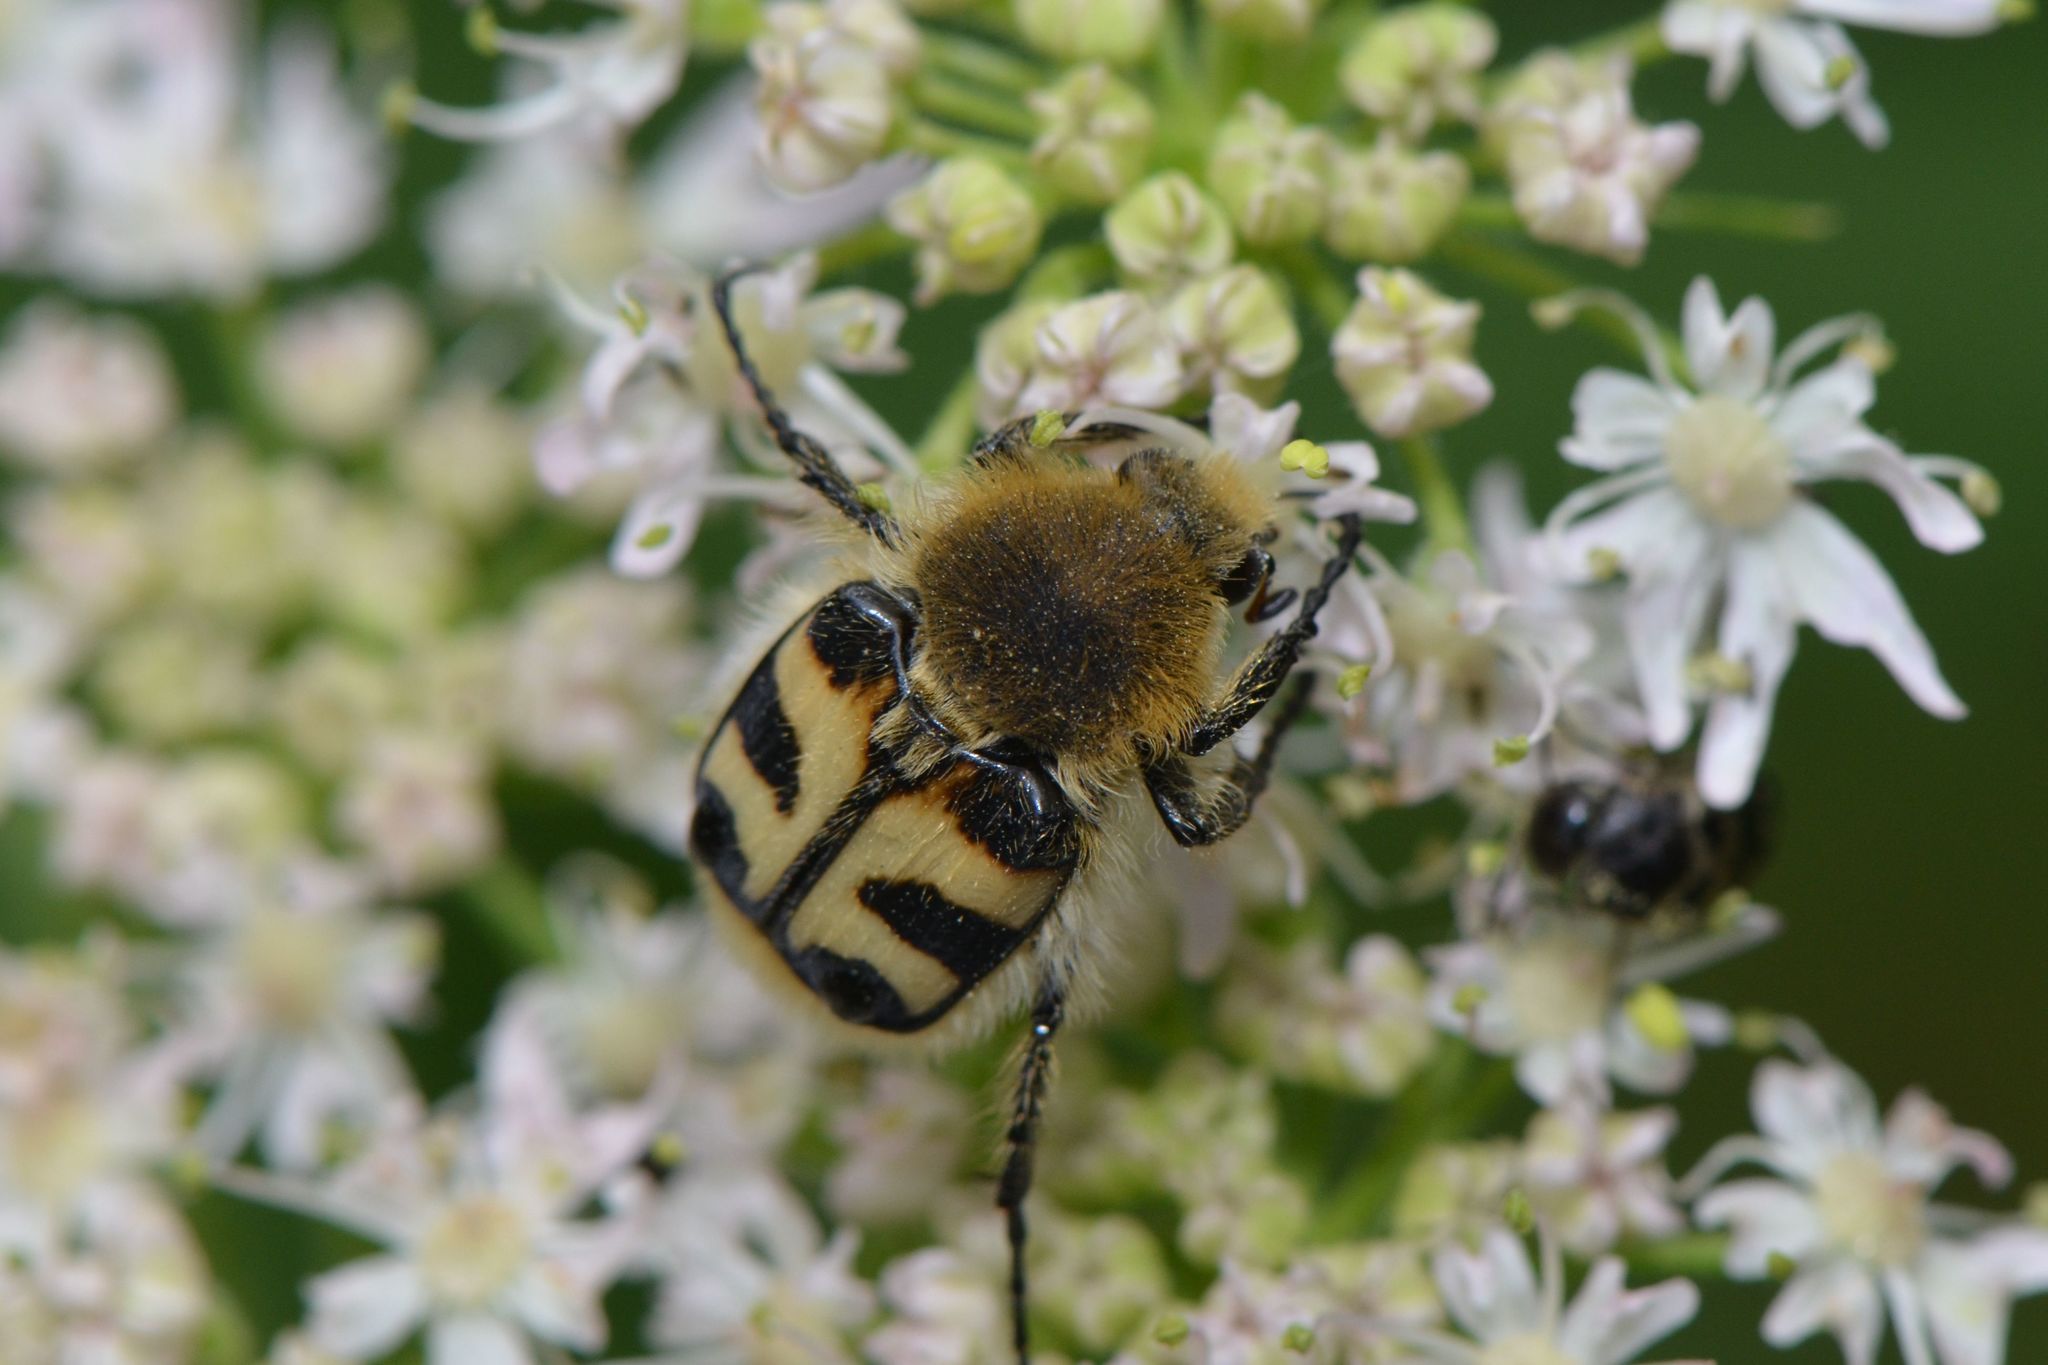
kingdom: Animalia
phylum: Arthropoda
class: Insecta
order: Coleoptera
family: Scarabaeidae
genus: Trichius
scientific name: Trichius fasciatus
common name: Bee beetle
